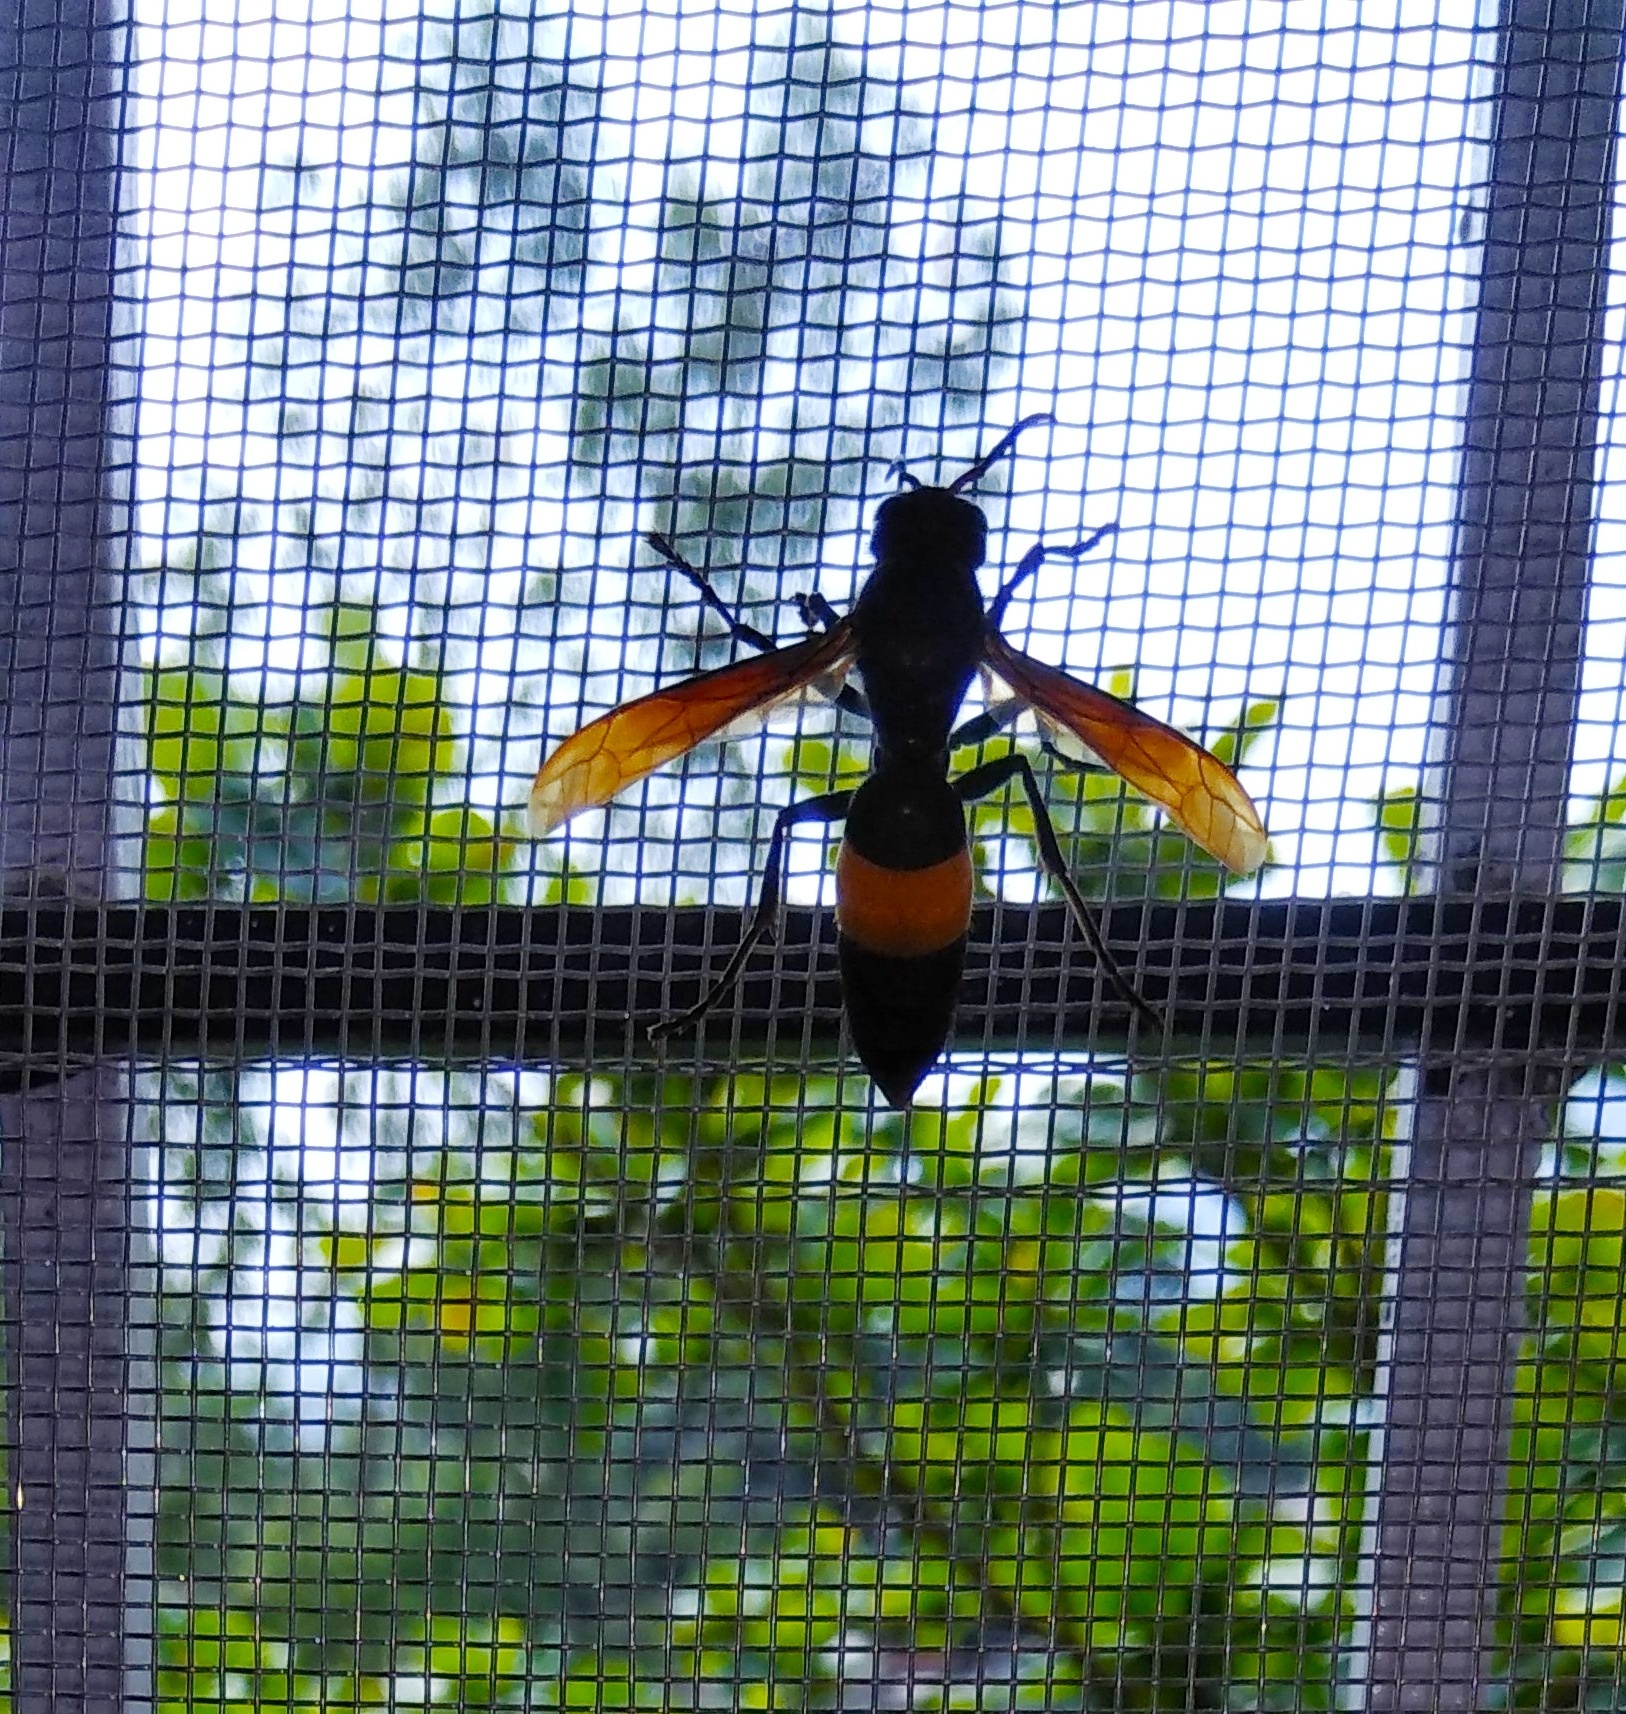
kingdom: Animalia
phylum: Arthropoda
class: Insecta
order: Hymenoptera
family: Vespidae
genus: Vespa
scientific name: Vespa tropica
